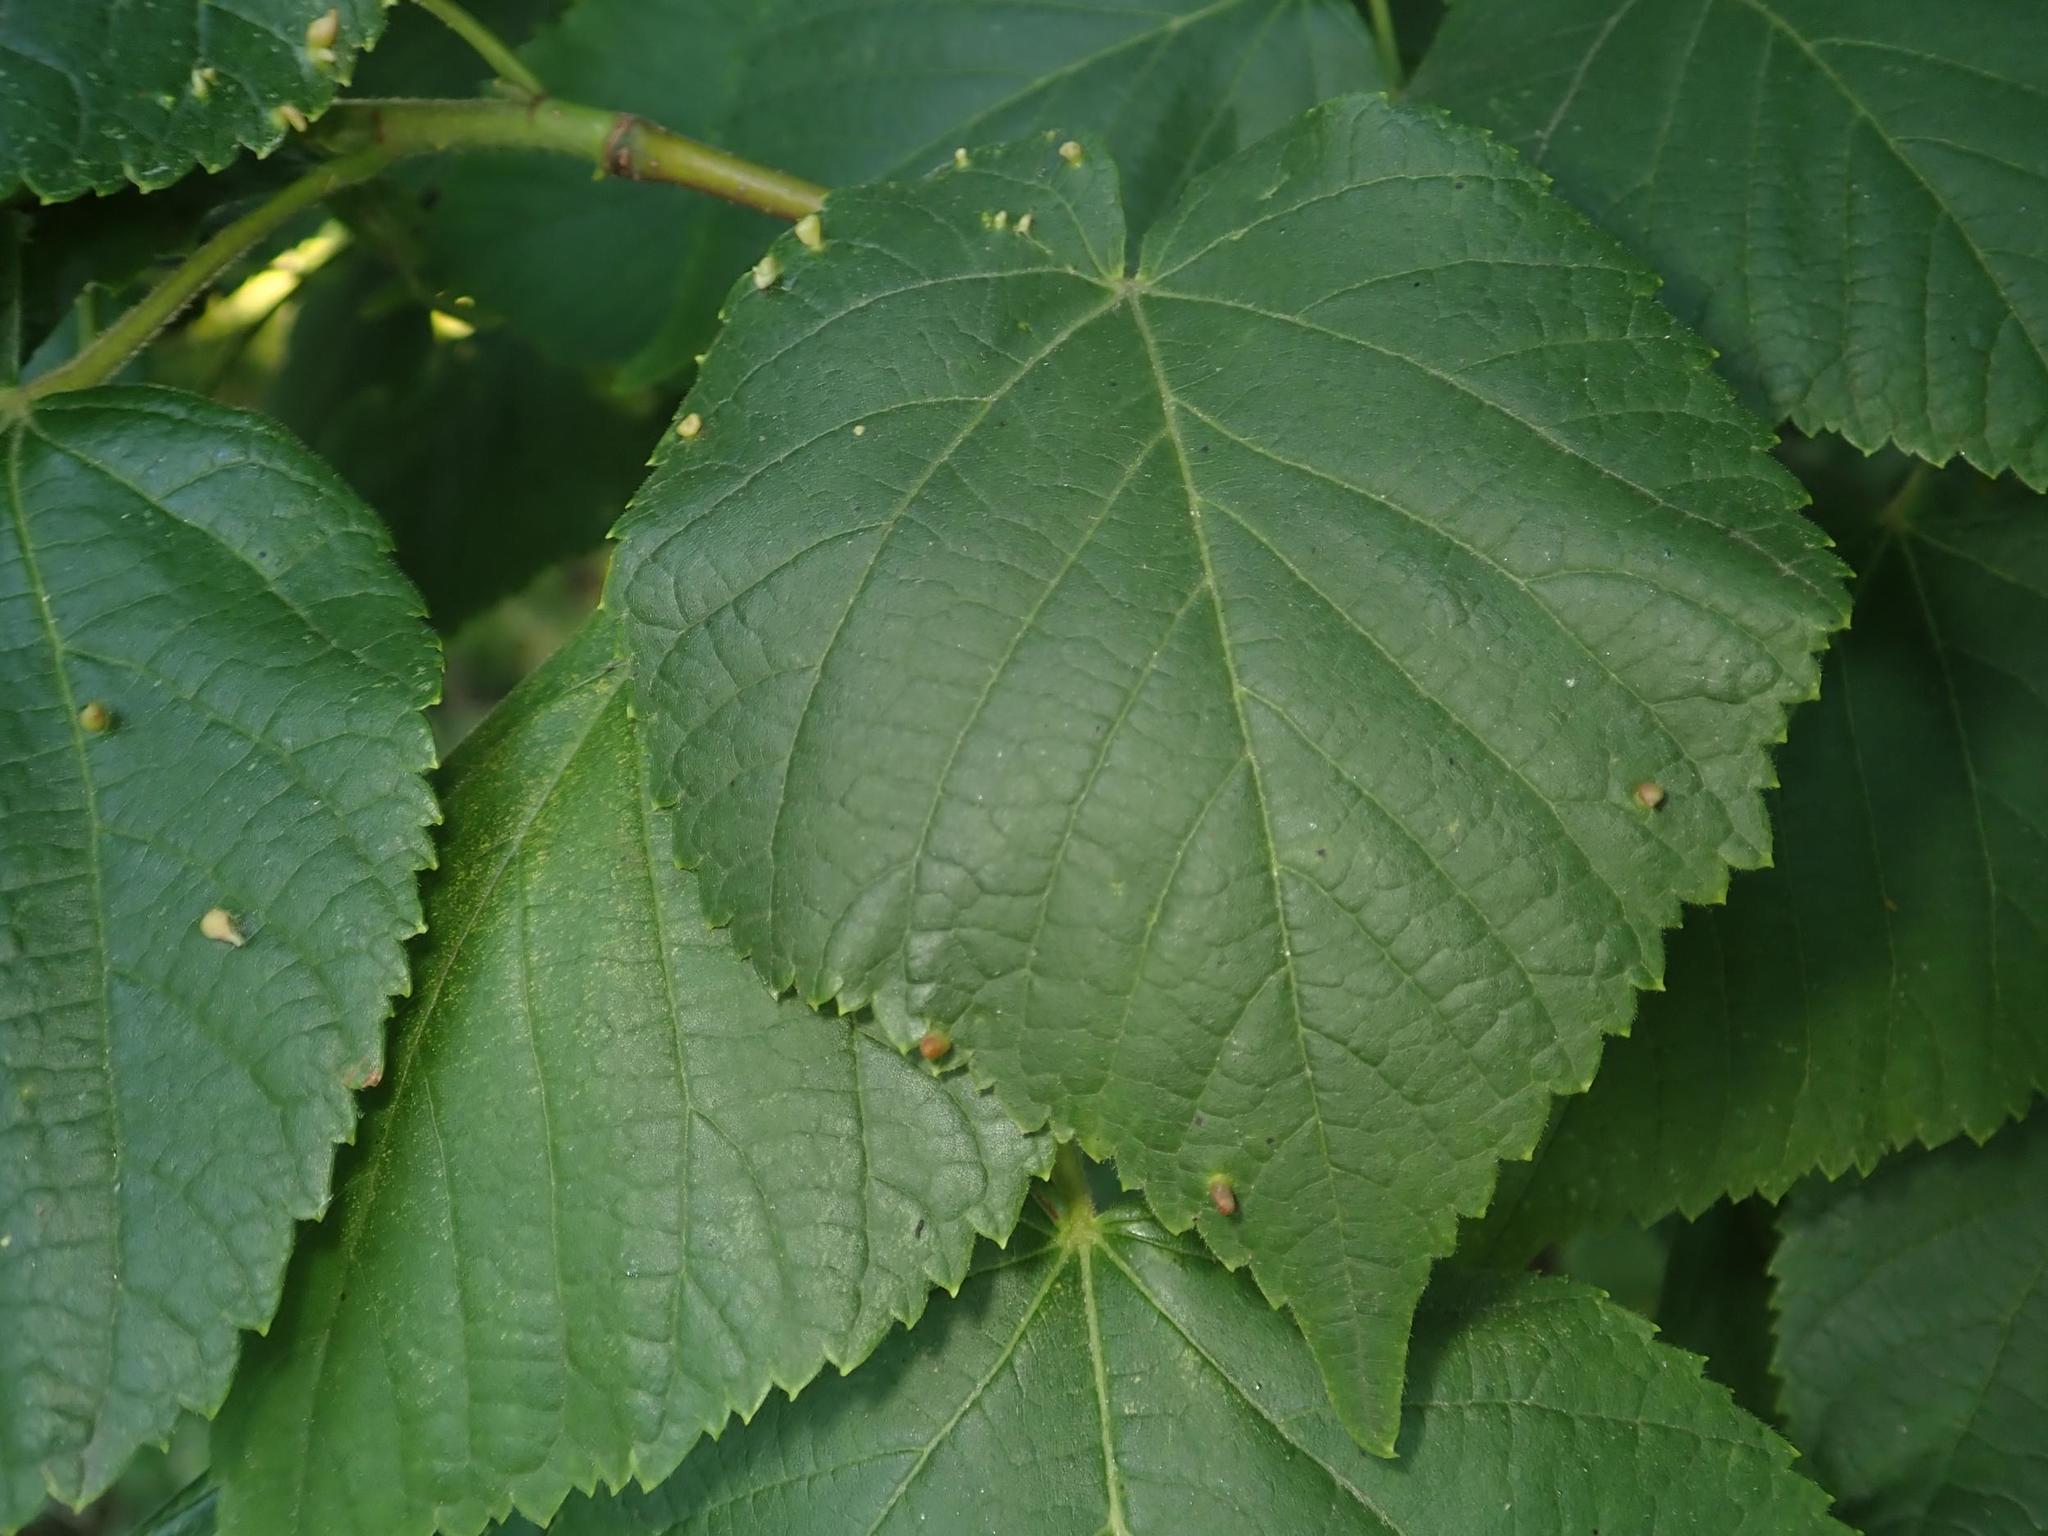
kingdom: Plantae
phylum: Tracheophyta
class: Magnoliopsida
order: Malvales
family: Malvaceae
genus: Tilia
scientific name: Tilia cordata
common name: Small-leaved lime
